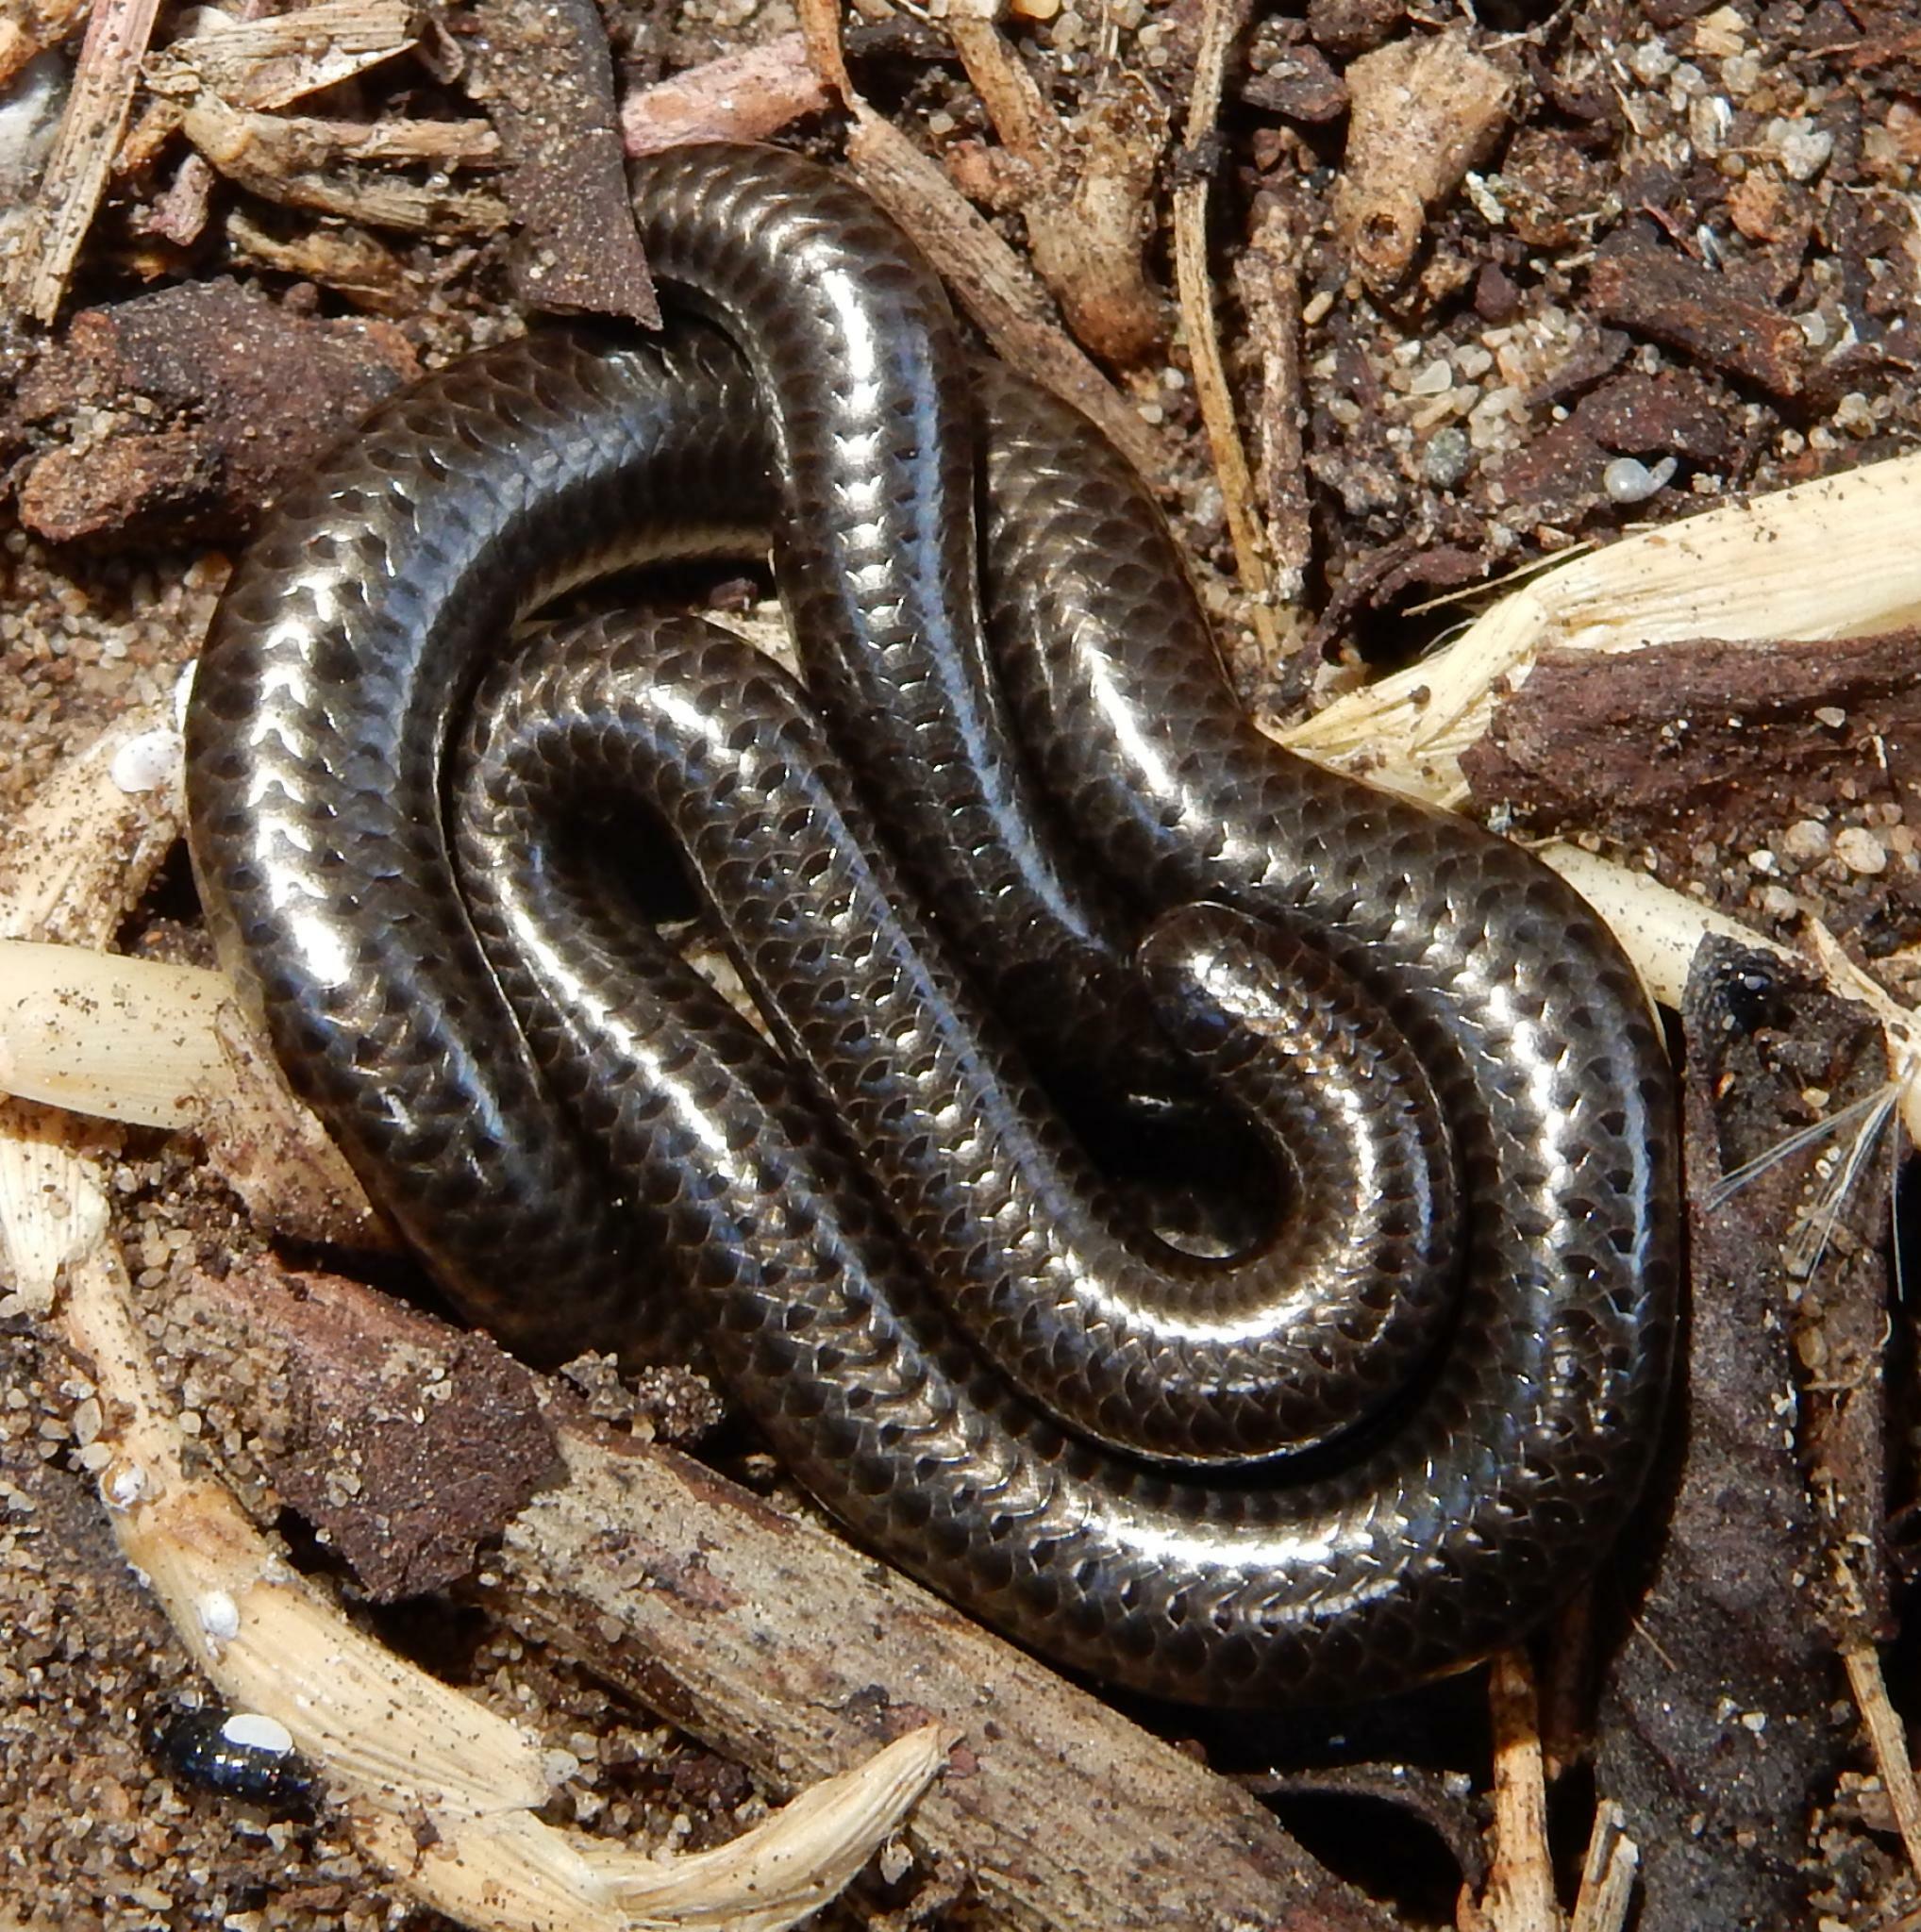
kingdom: Animalia
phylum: Chordata
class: Squamata
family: Leptotyphlopidae
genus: Leptotyphlops
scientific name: Leptotyphlops nigricans
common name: Black thread snake
